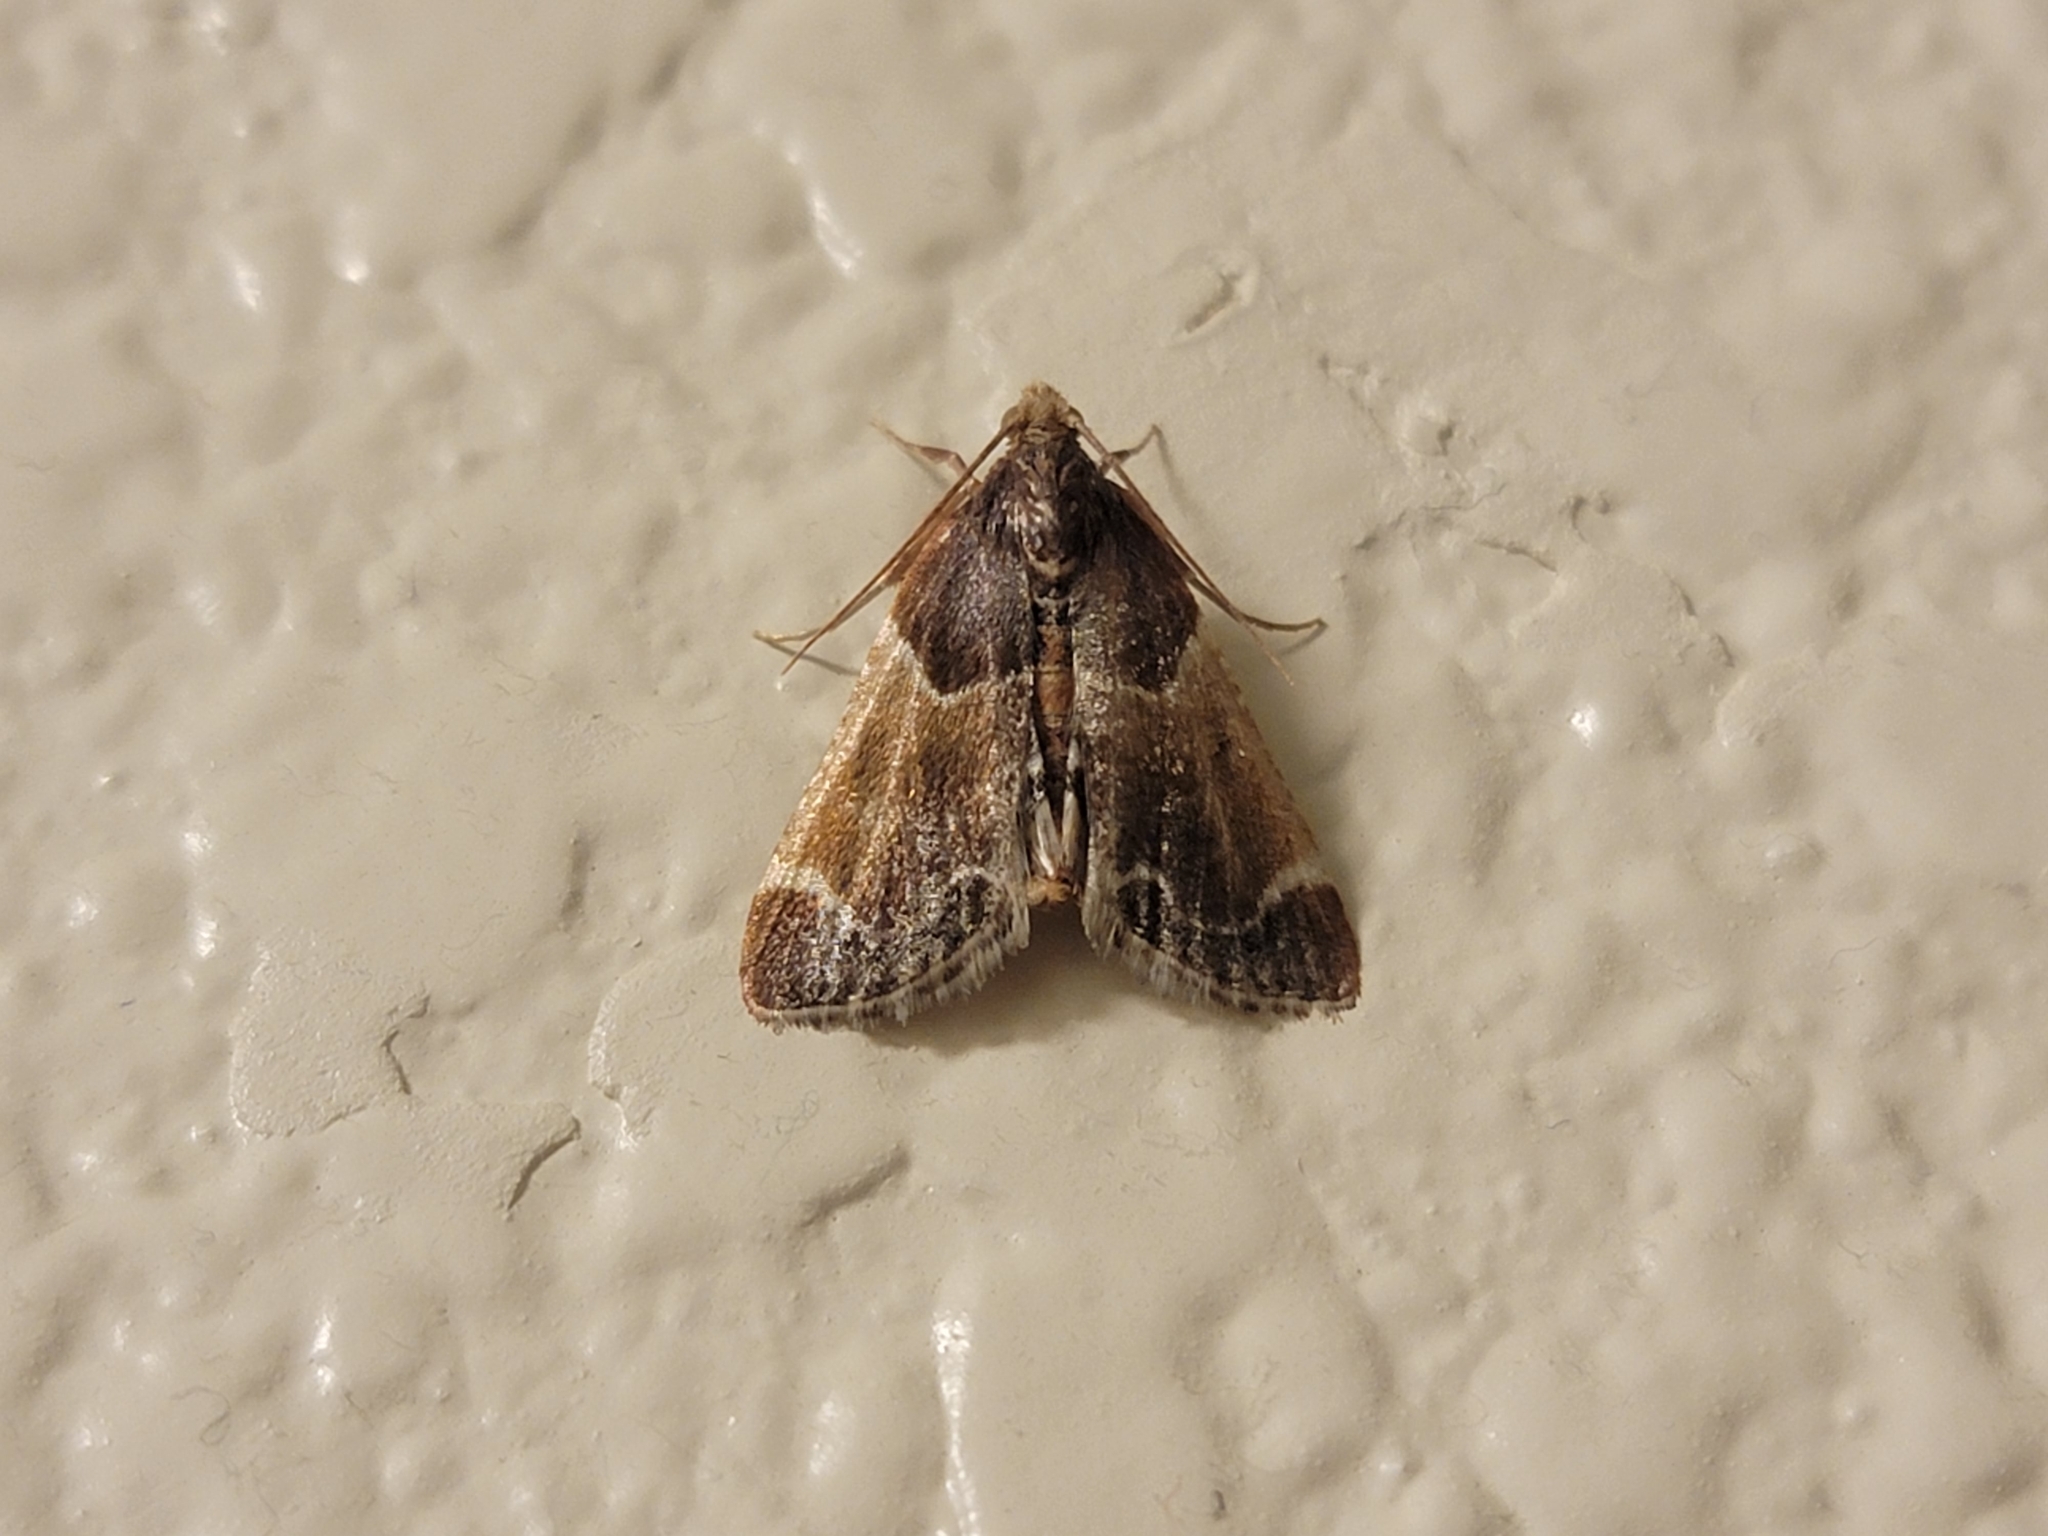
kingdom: Animalia
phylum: Arthropoda
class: Insecta
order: Lepidoptera
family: Pyralidae
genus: Pyralis
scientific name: Pyralis farinalis
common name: Meal moth
